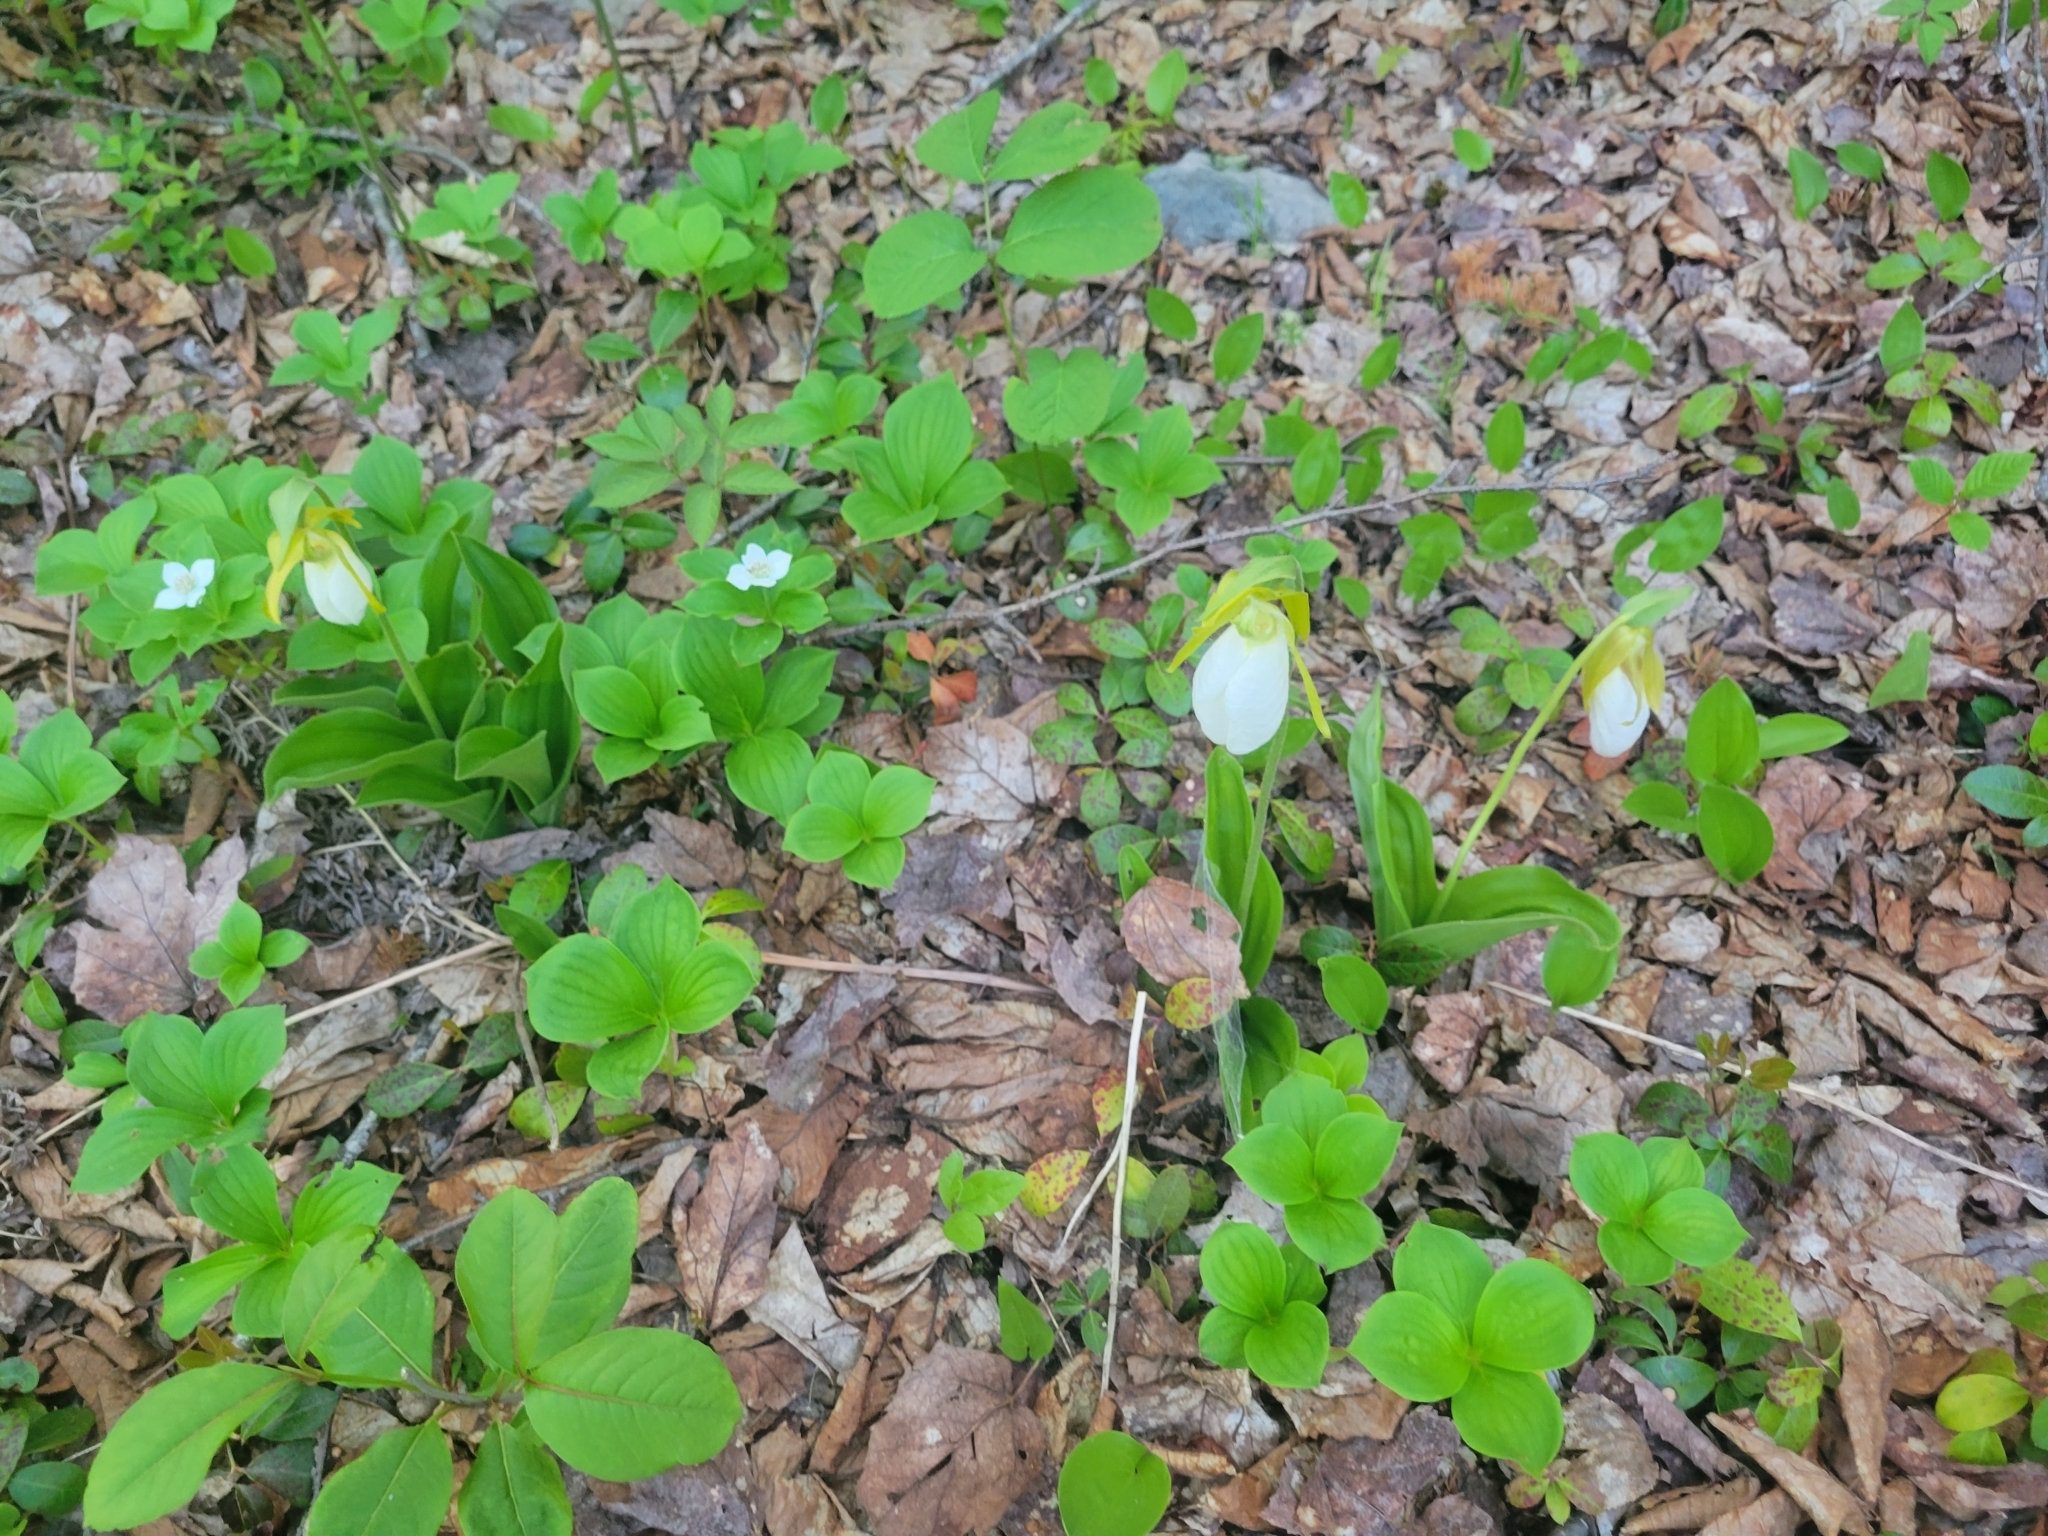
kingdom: Plantae
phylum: Tracheophyta
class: Liliopsida
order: Asparagales
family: Orchidaceae
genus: Cypripedium
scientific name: Cypripedium acaule
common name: Pink lady's-slipper
